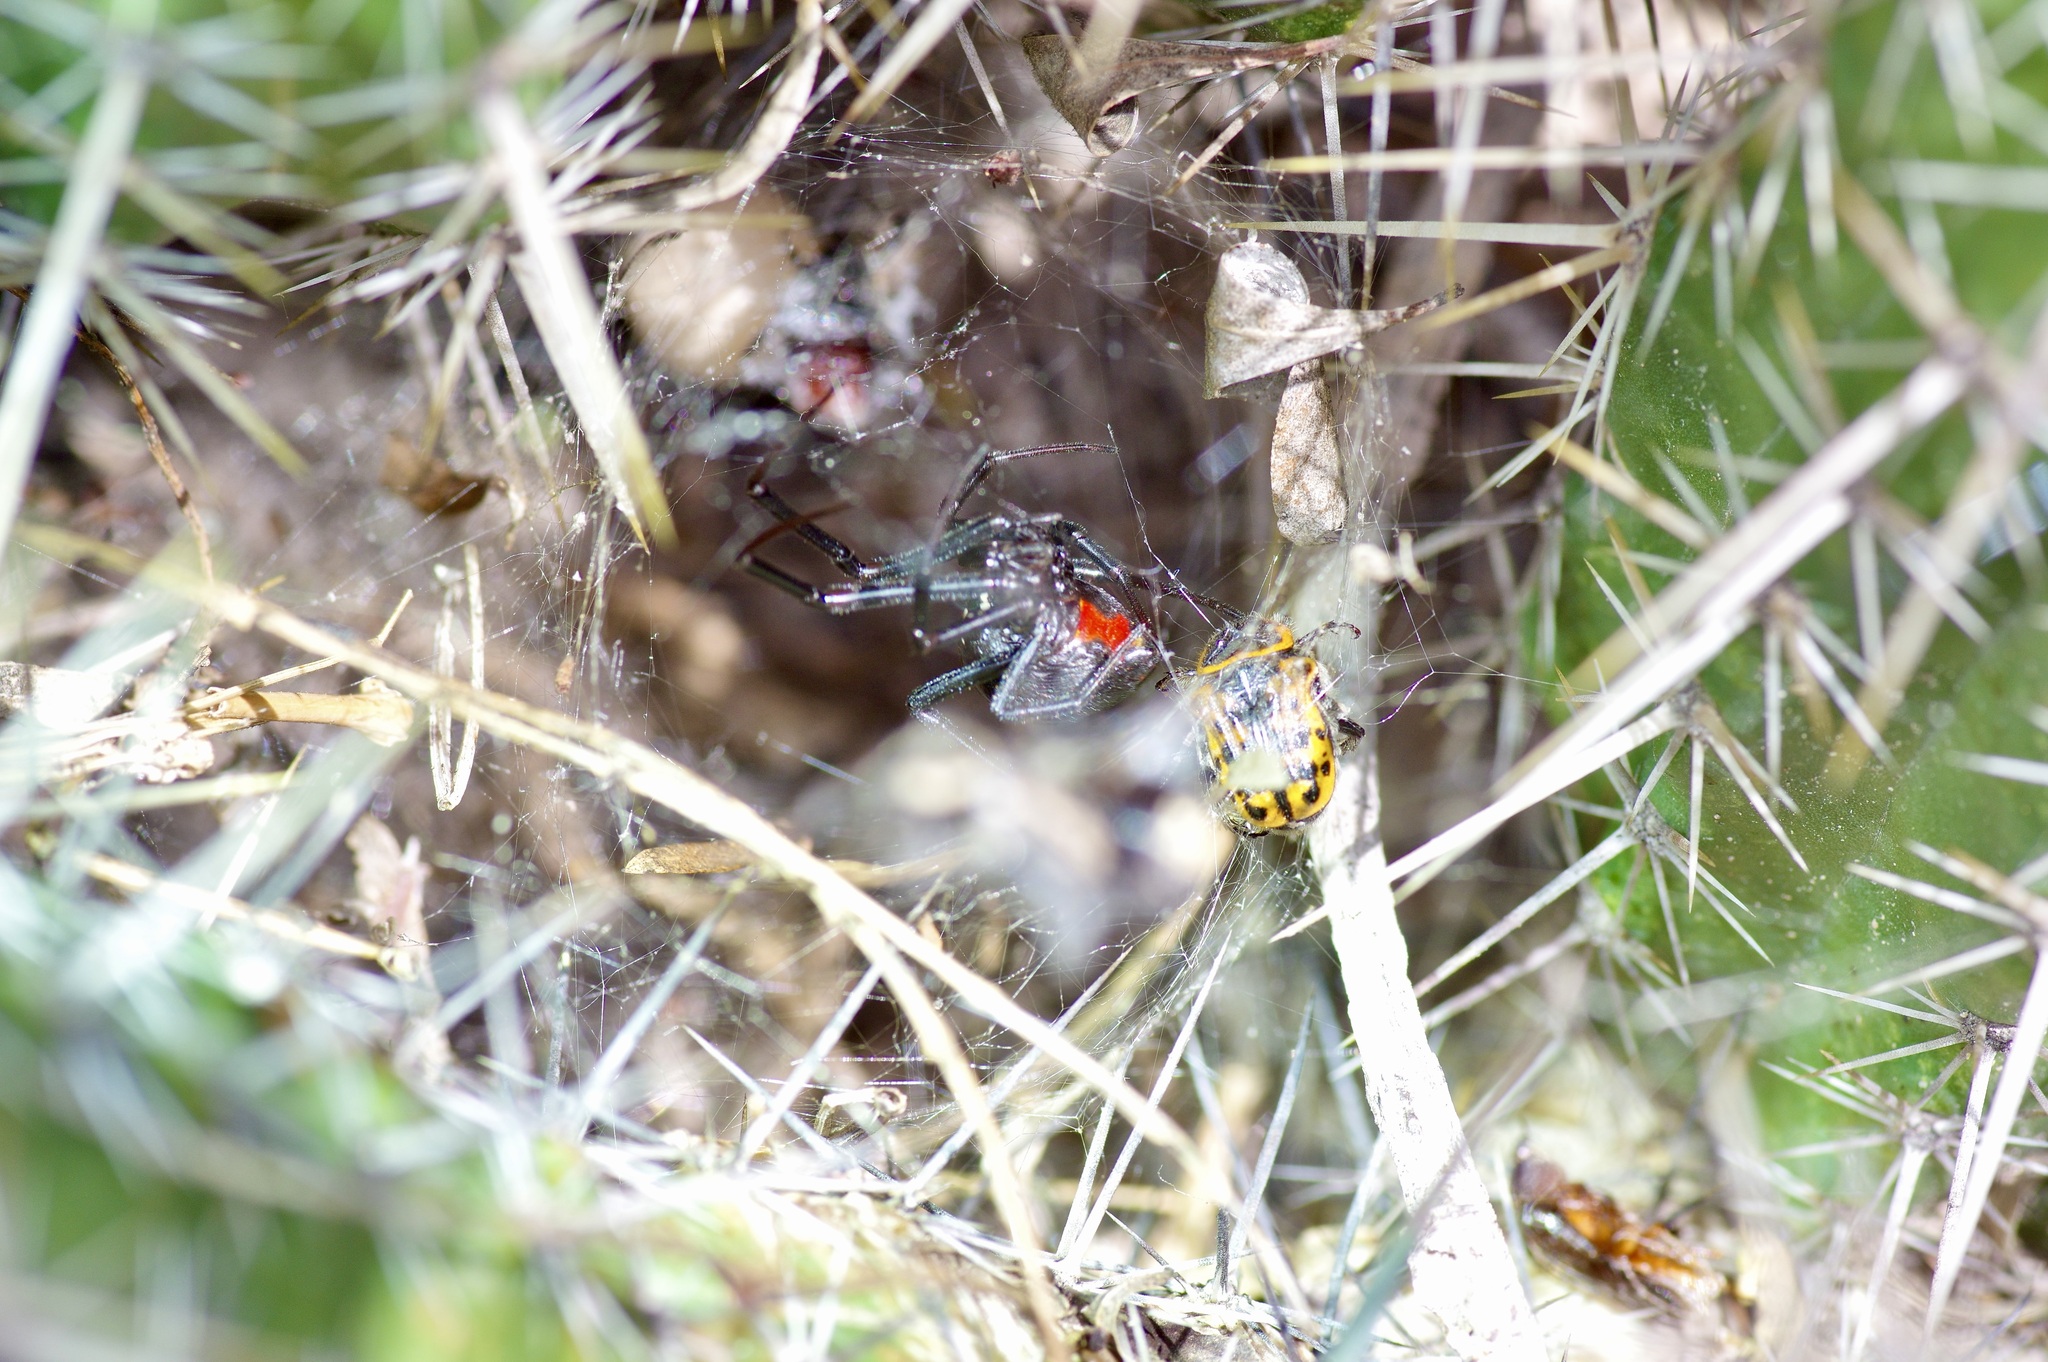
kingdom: Animalia
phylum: Arthropoda
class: Arachnida
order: Araneae
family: Theridiidae
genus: Latrodectus
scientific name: Latrodectus geometricus
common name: Brown widow spider
